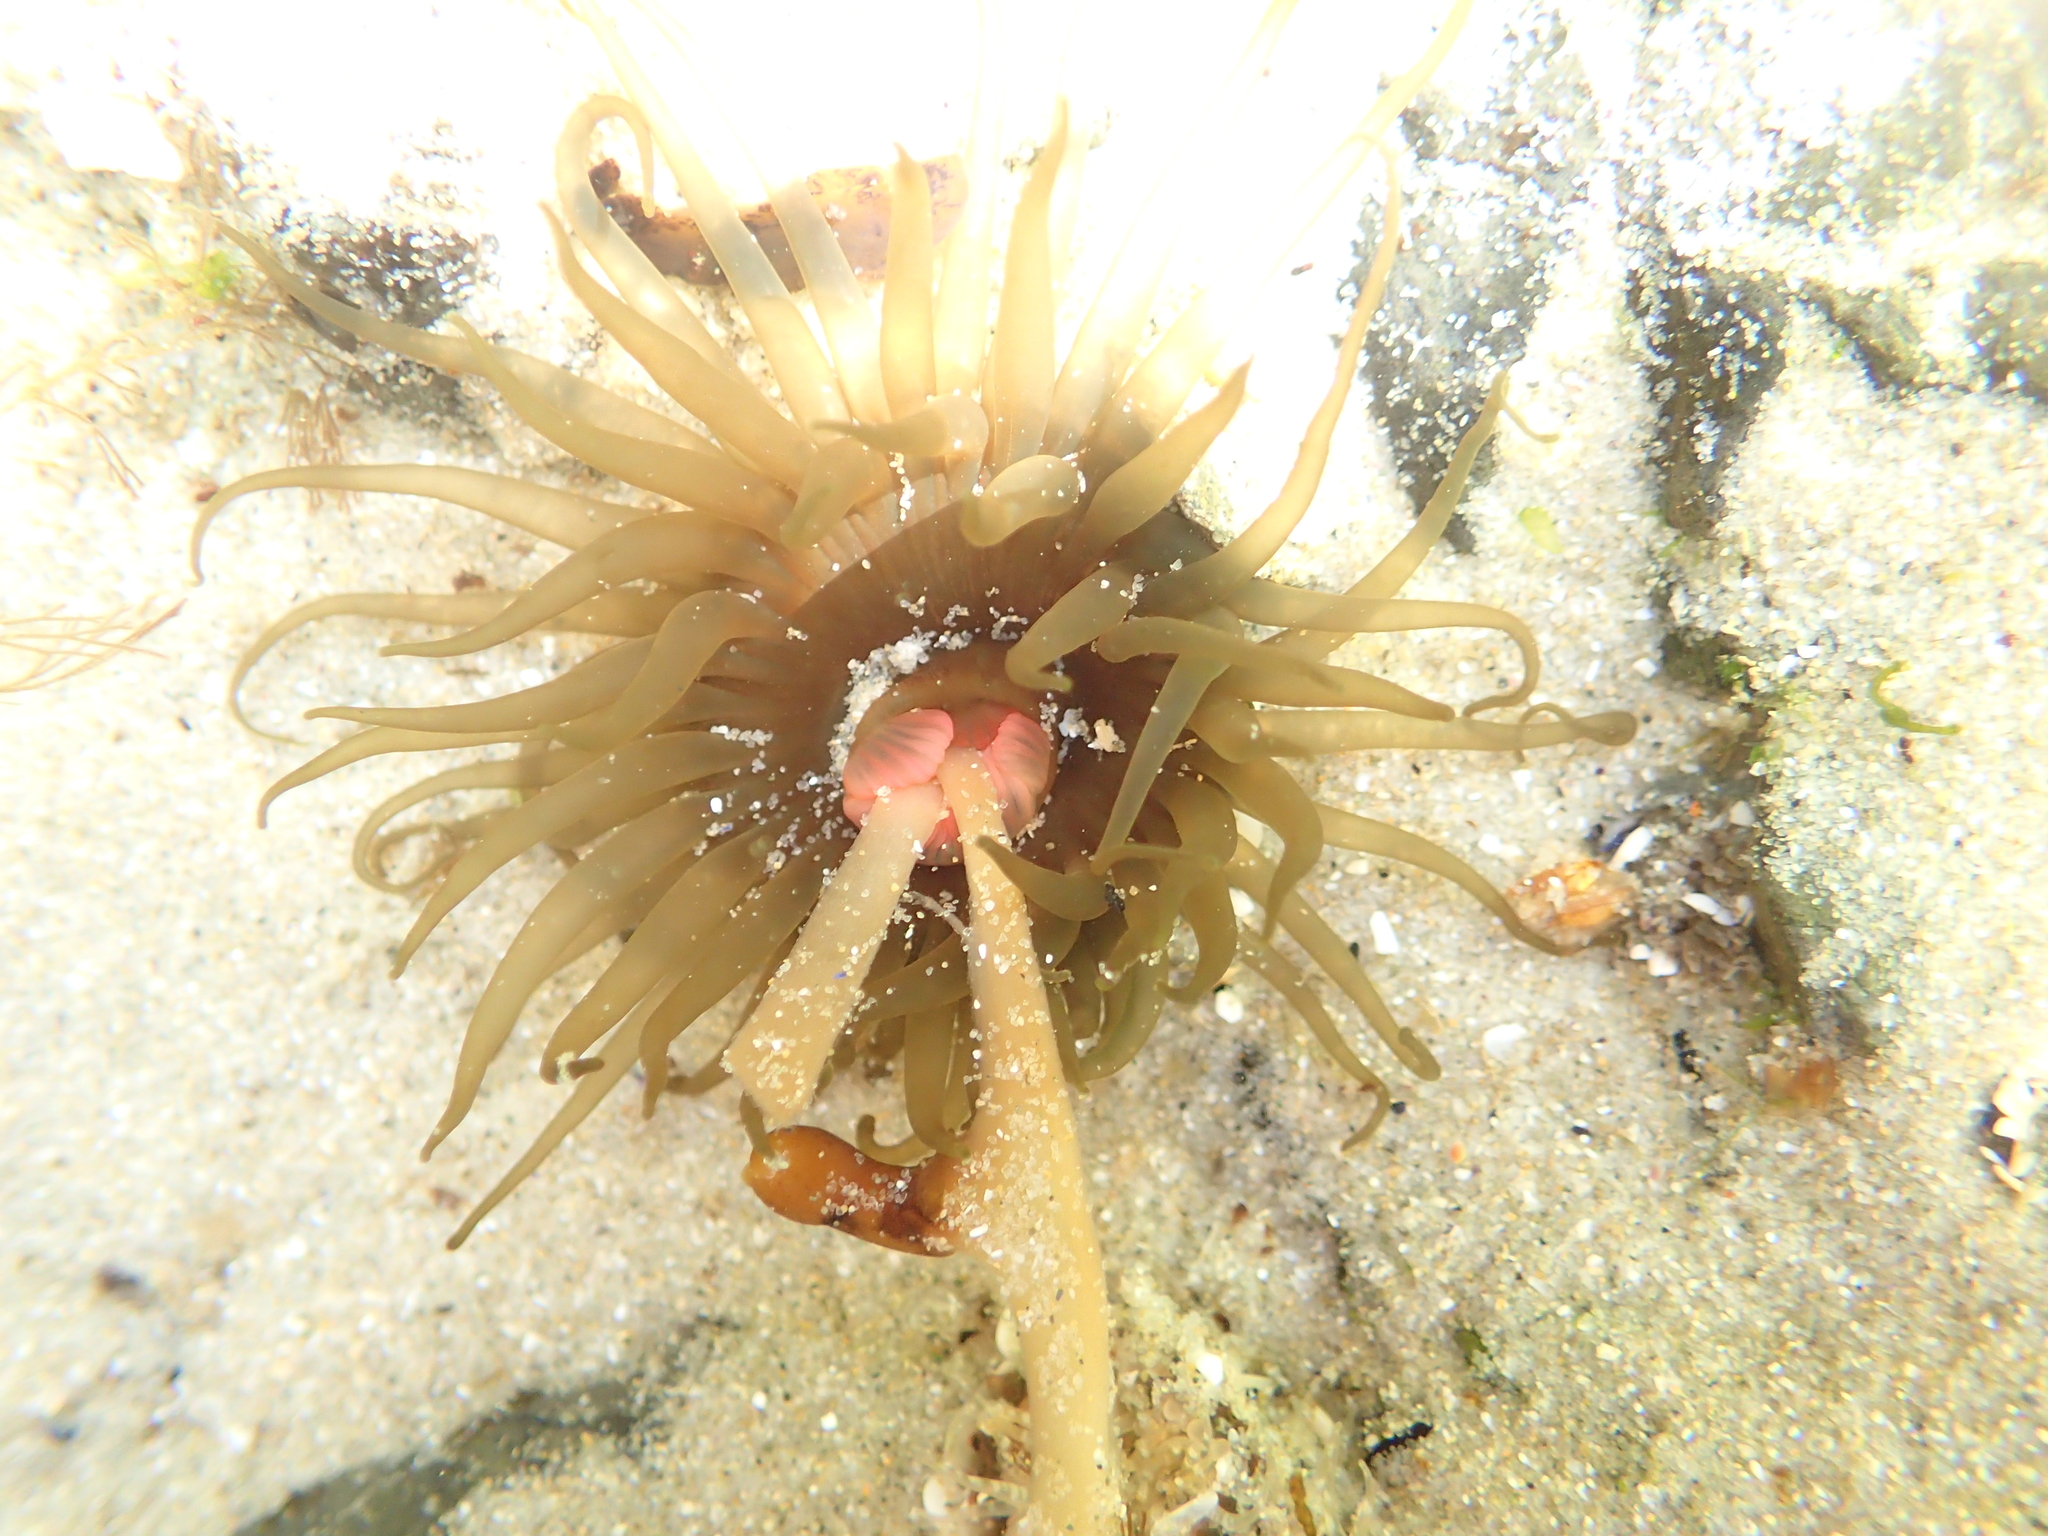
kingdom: Animalia
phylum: Cnidaria
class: Anthozoa
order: Actiniaria
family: Actiniidae
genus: Isactinia
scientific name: Isactinia olivacea
